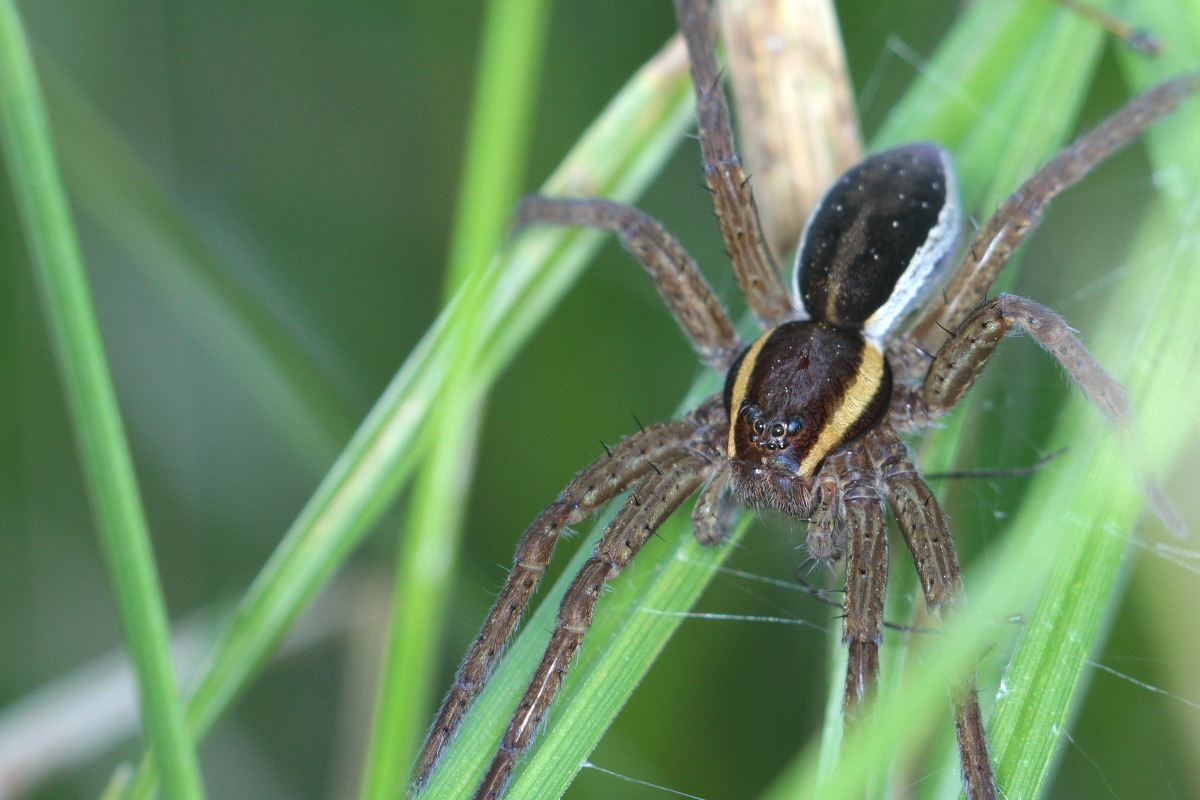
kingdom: Animalia
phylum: Arthropoda
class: Arachnida
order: Araneae
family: Pisauridae
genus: Dolomedes
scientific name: Dolomedes fimbriatus
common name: Raft spider
